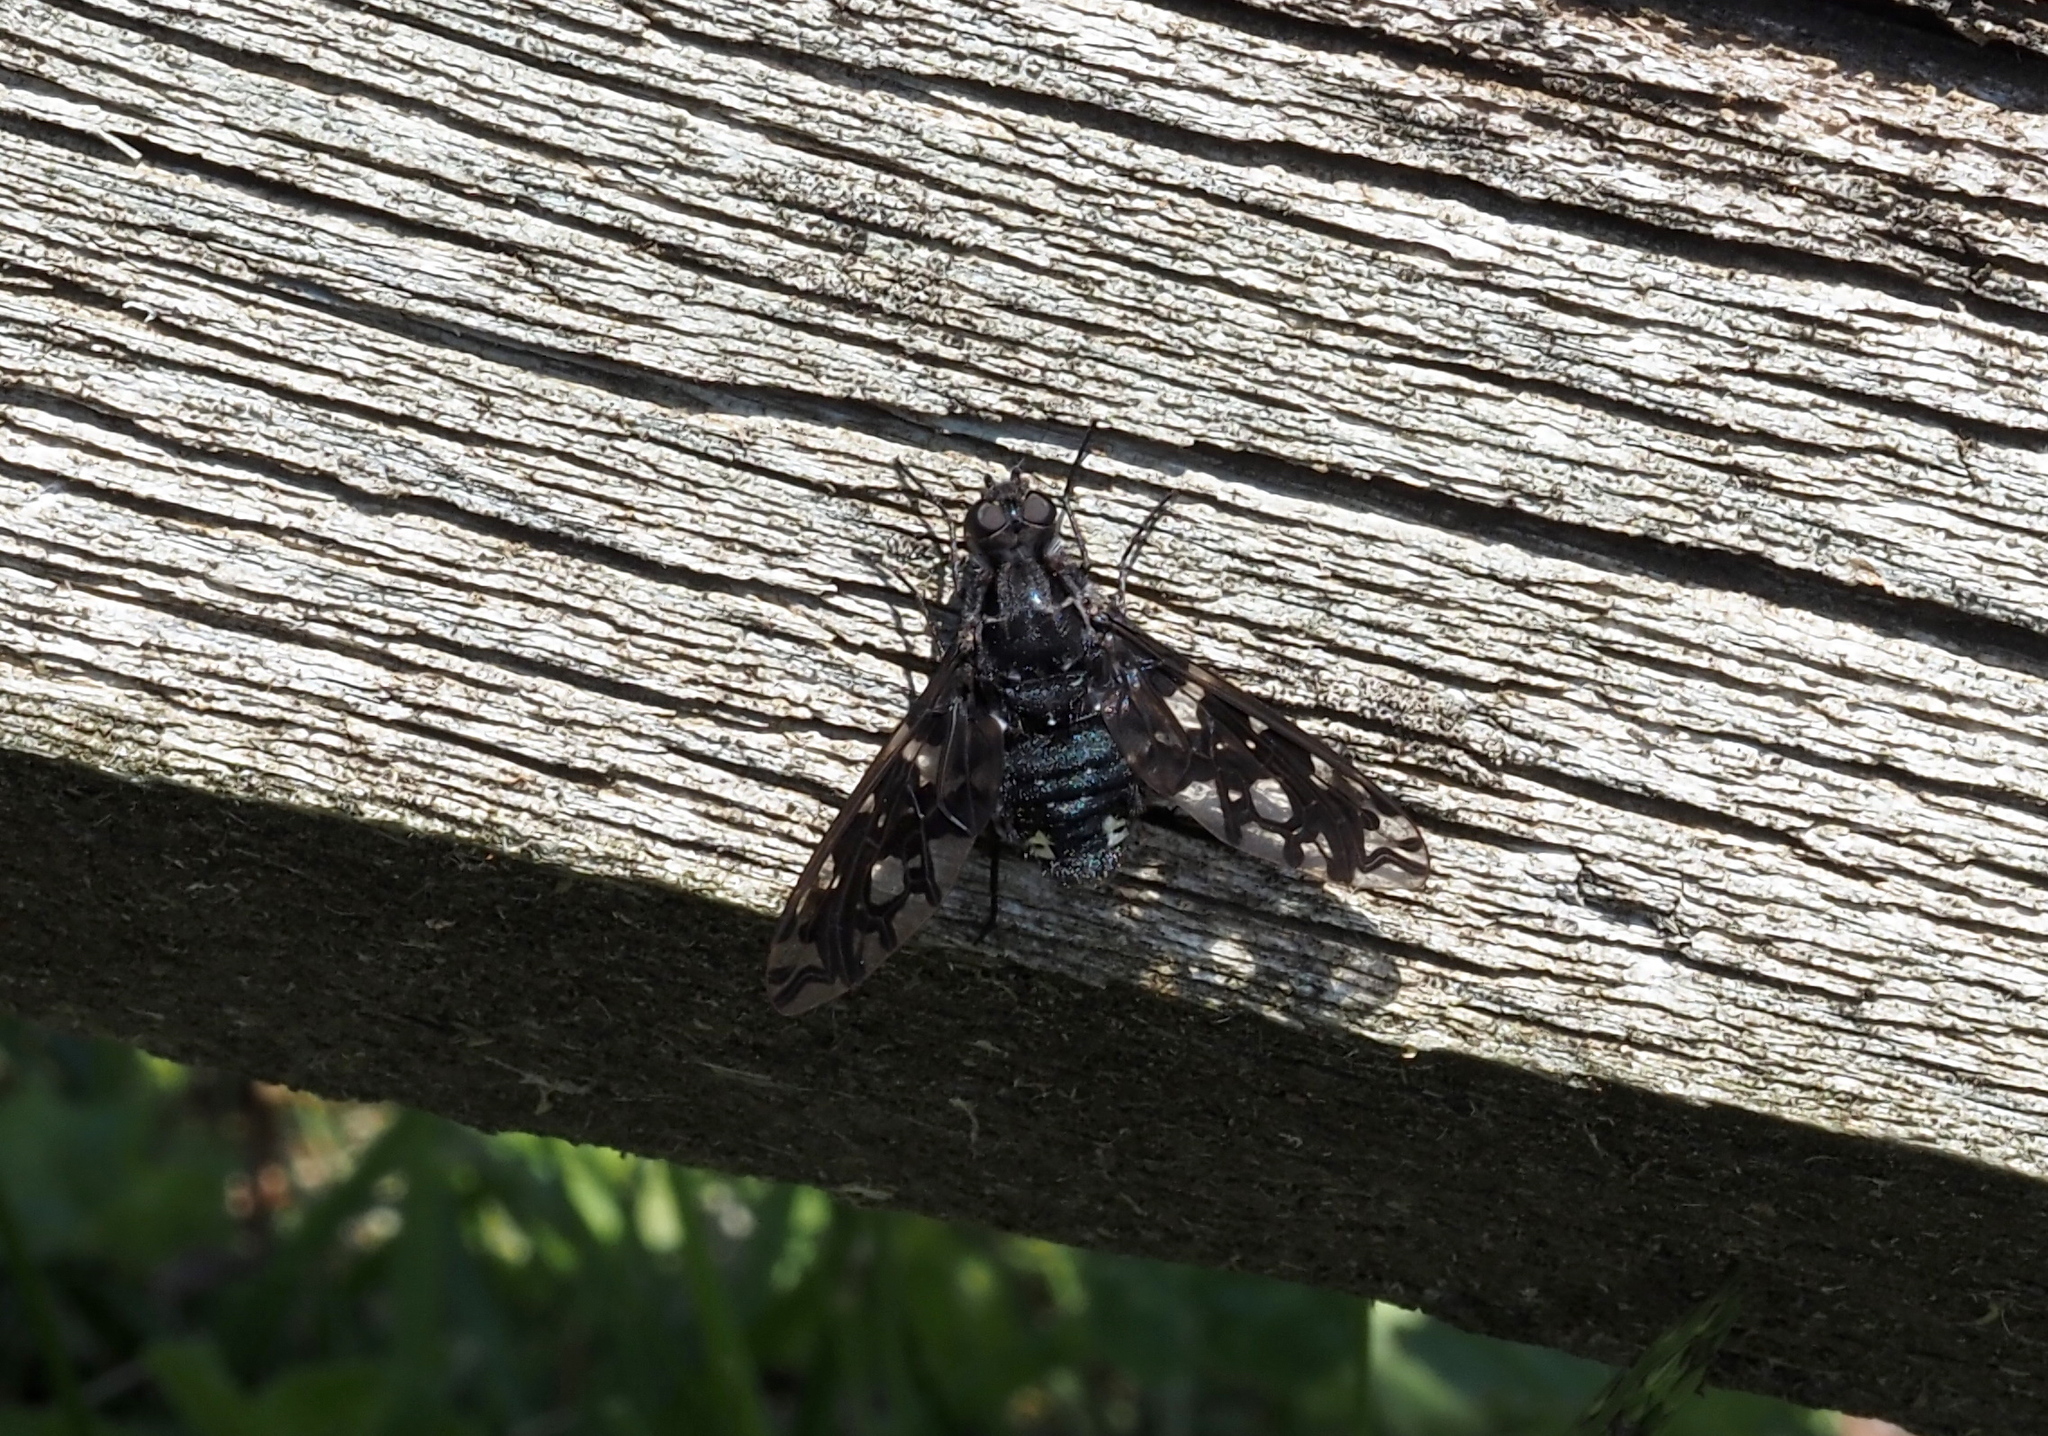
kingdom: Animalia
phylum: Arthropoda
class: Insecta
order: Diptera
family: Bombyliidae
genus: Xenox
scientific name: Xenox tigrinus
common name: Tiger bee fly
